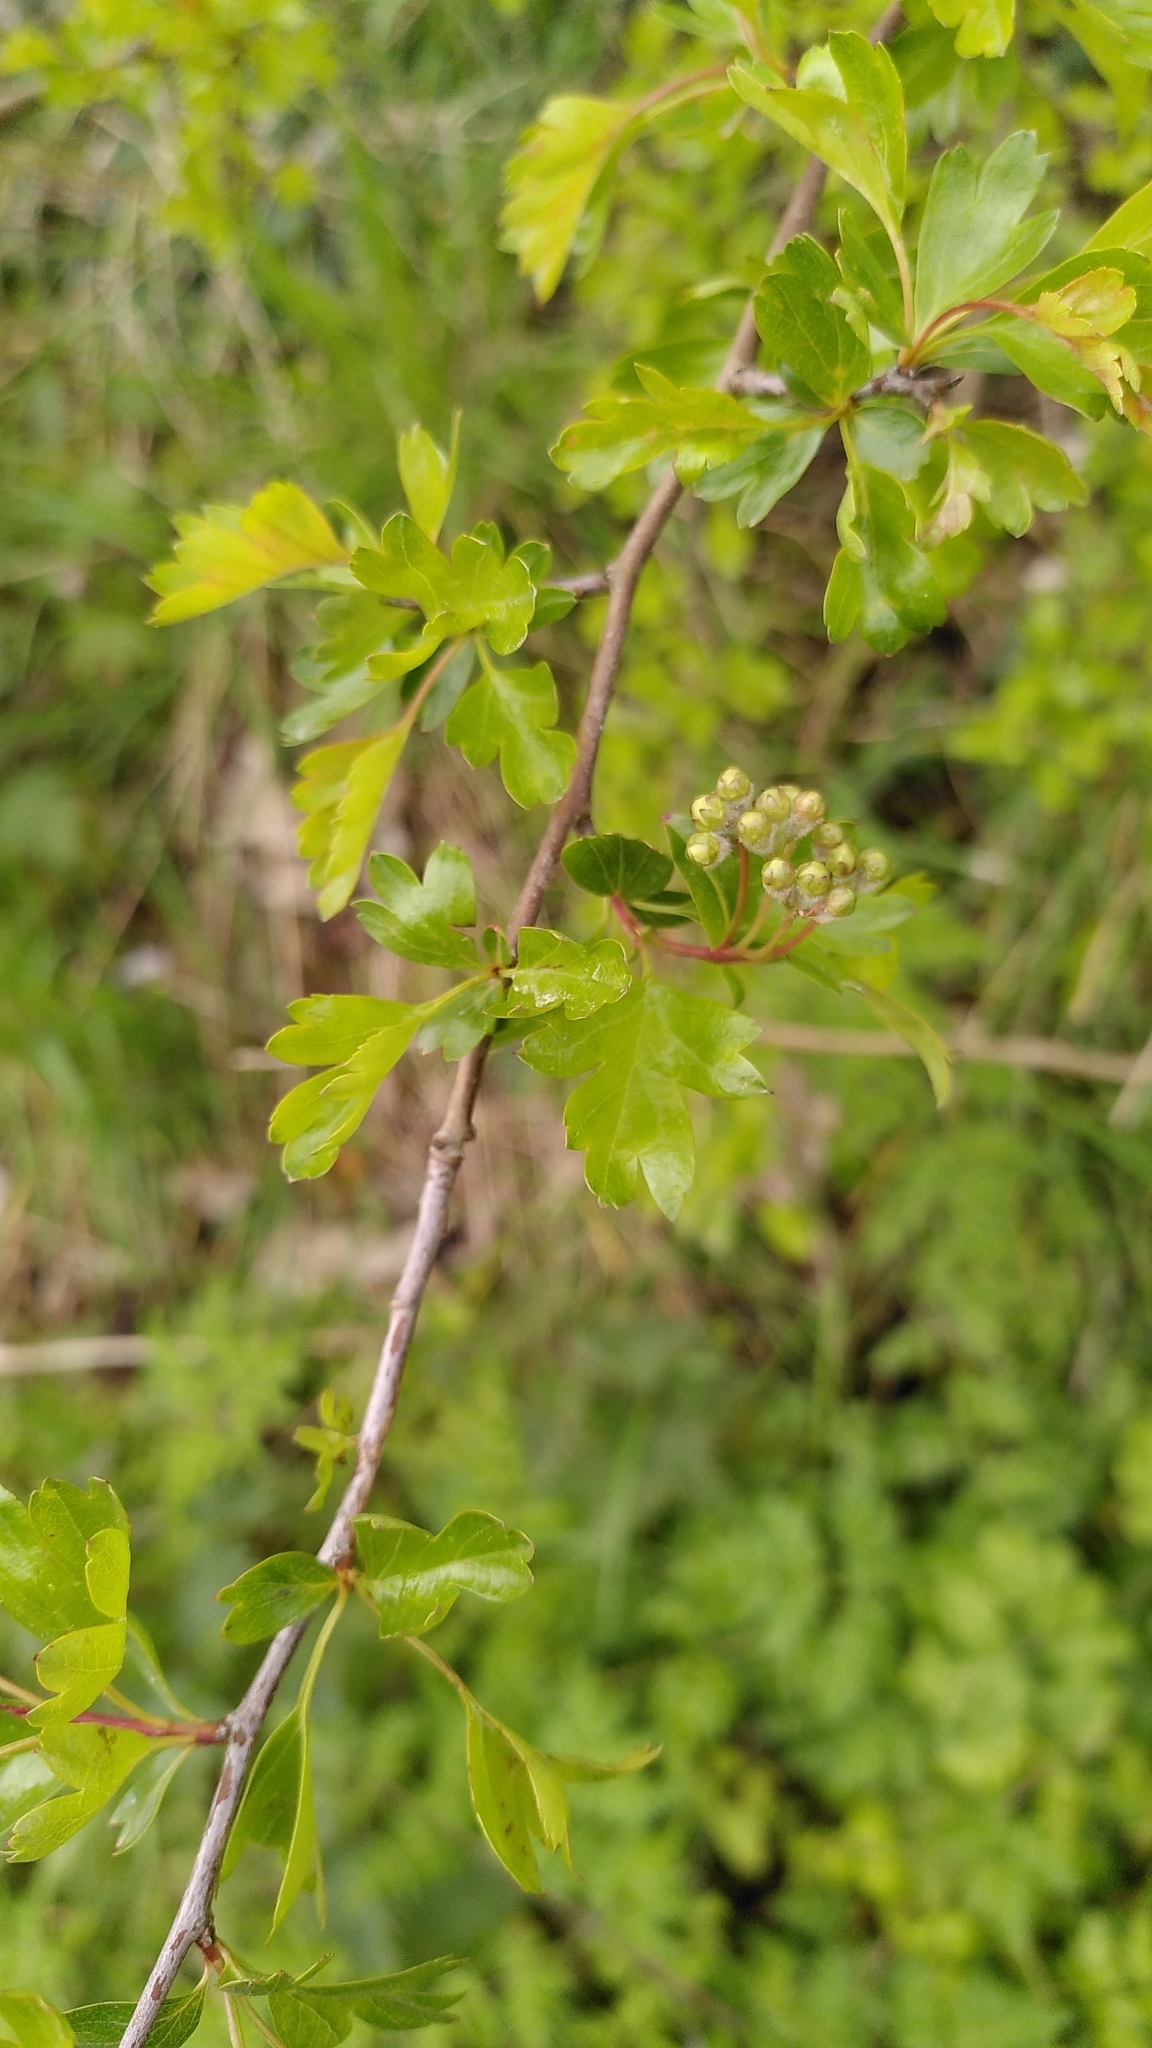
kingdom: Plantae
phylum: Tracheophyta
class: Magnoliopsida
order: Rosales
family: Rosaceae
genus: Crataegus
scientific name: Crataegus monogyna
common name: Hawthorn
